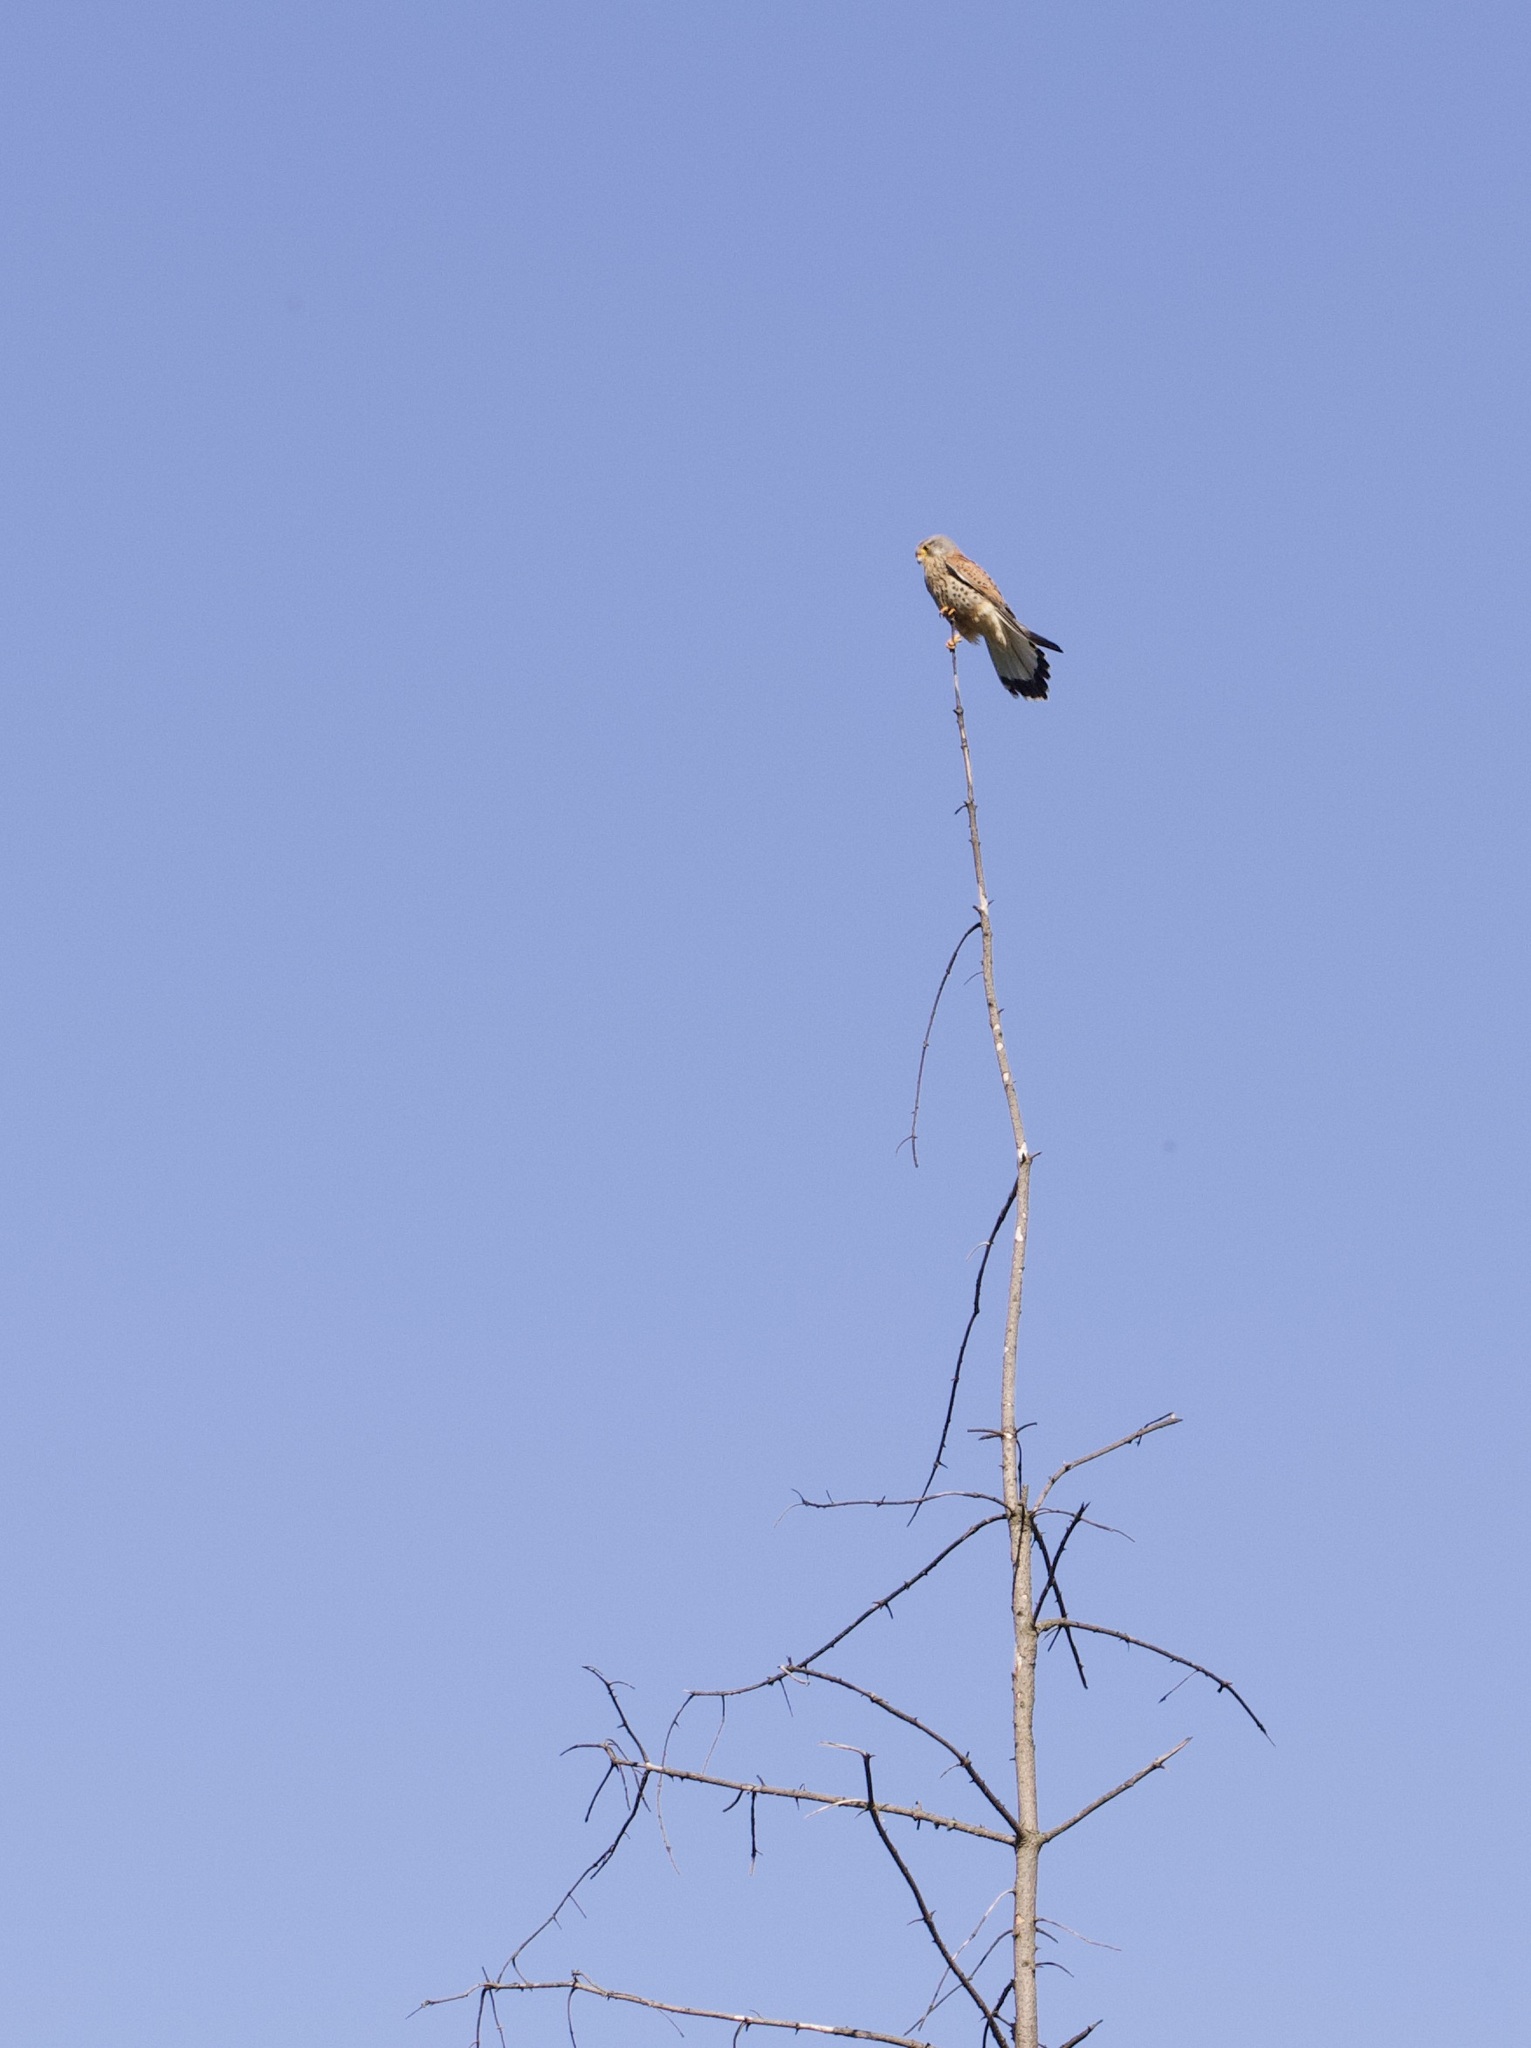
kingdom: Animalia
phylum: Chordata
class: Aves
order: Falconiformes
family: Falconidae
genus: Falco
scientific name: Falco tinnunculus
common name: Common kestrel
